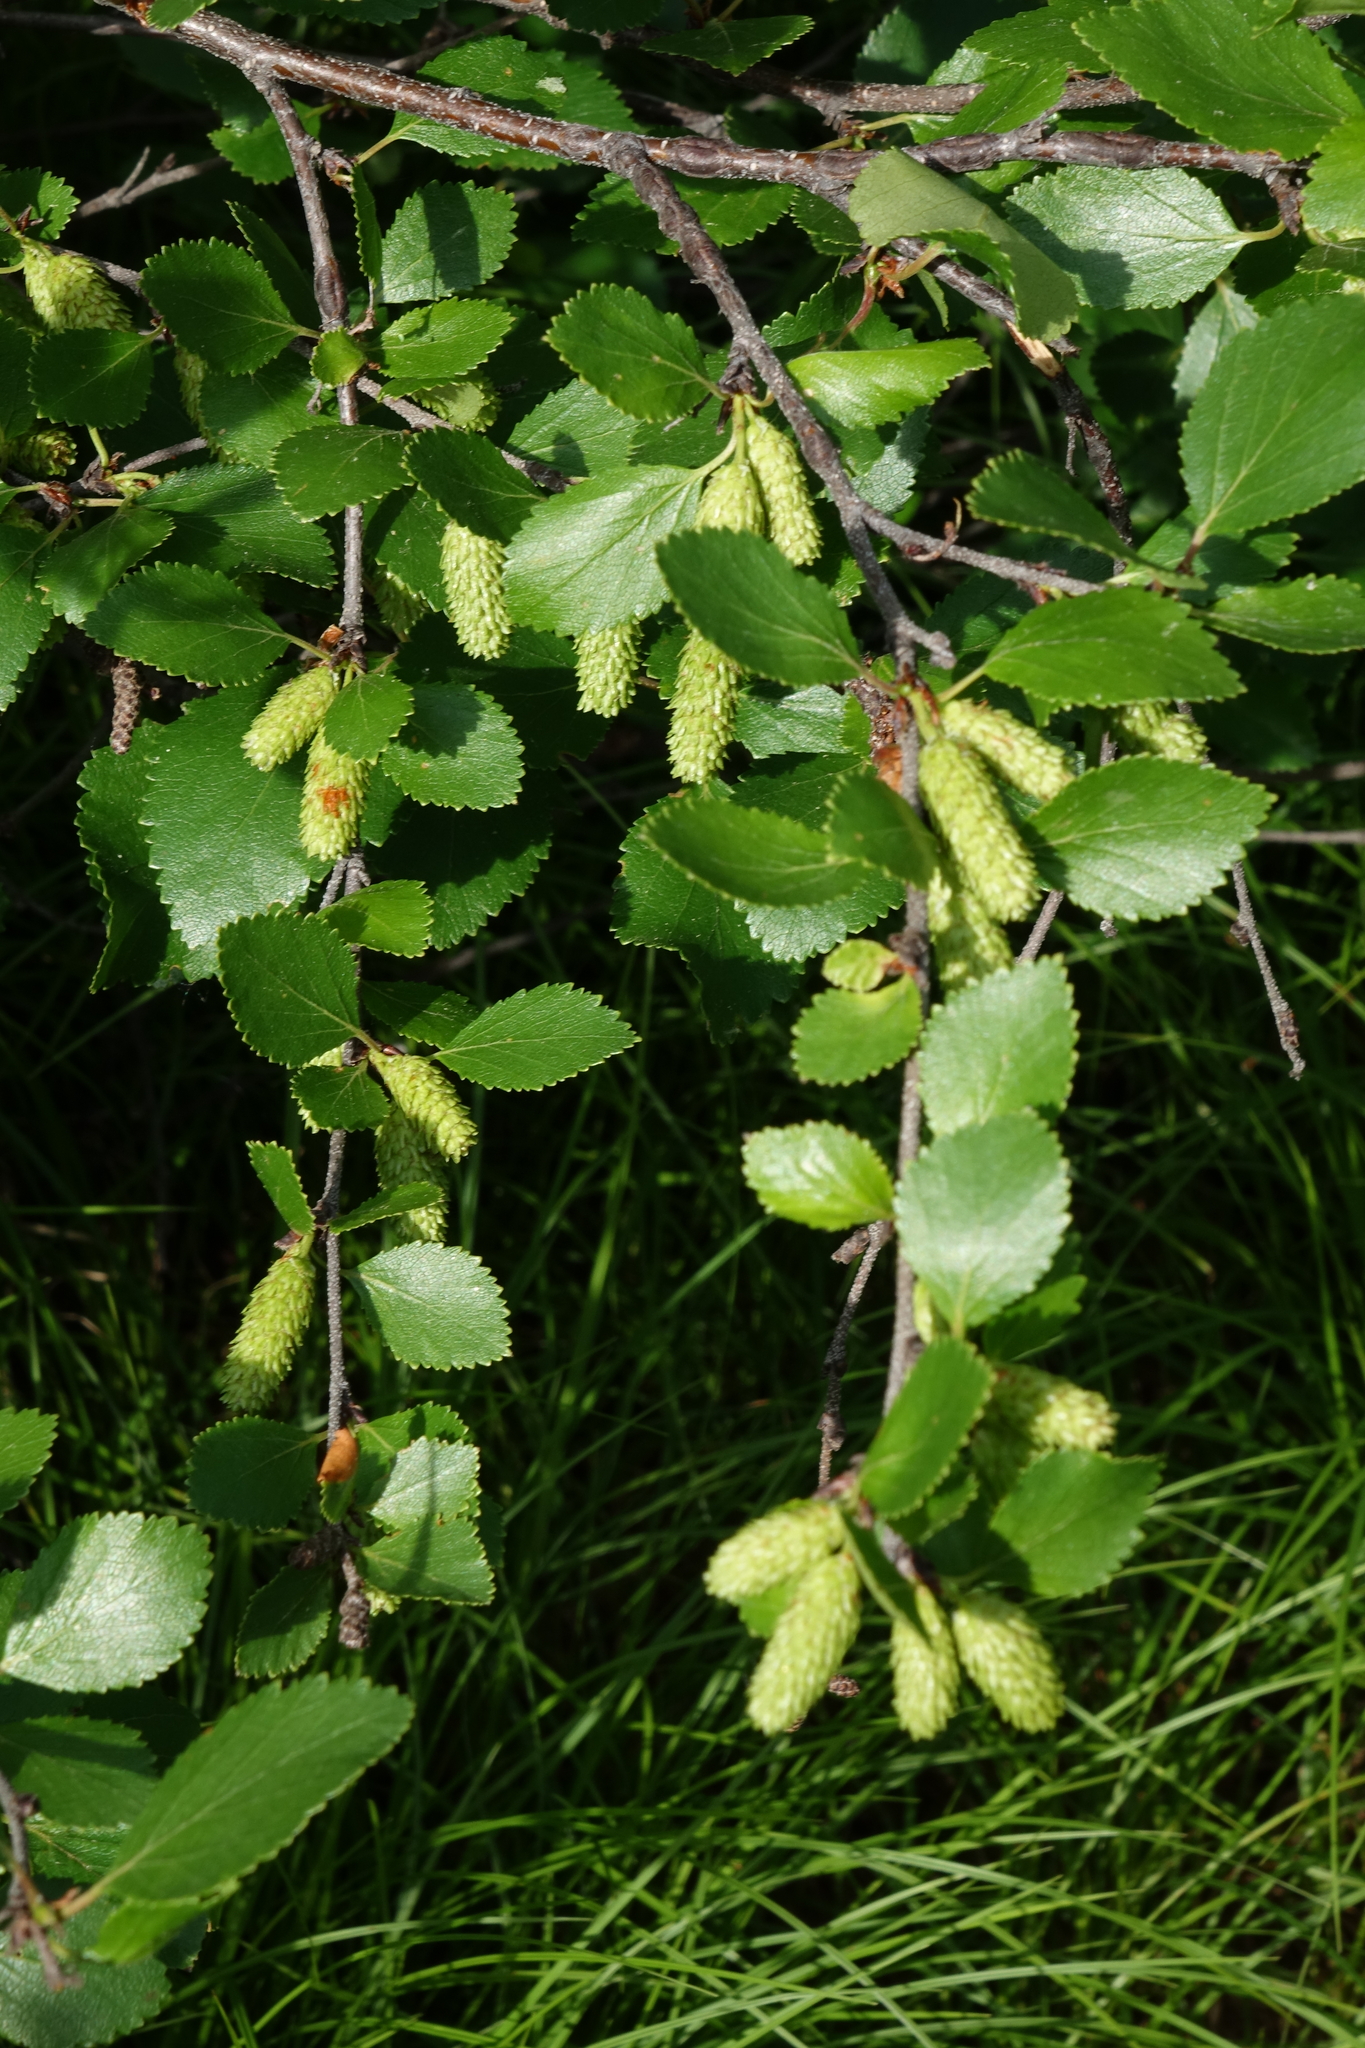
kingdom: Plantae
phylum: Tracheophyta
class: Magnoliopsida
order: Fagales
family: Betulaceae
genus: Betula
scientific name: Betula fruticosa
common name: Japanese bog birch
